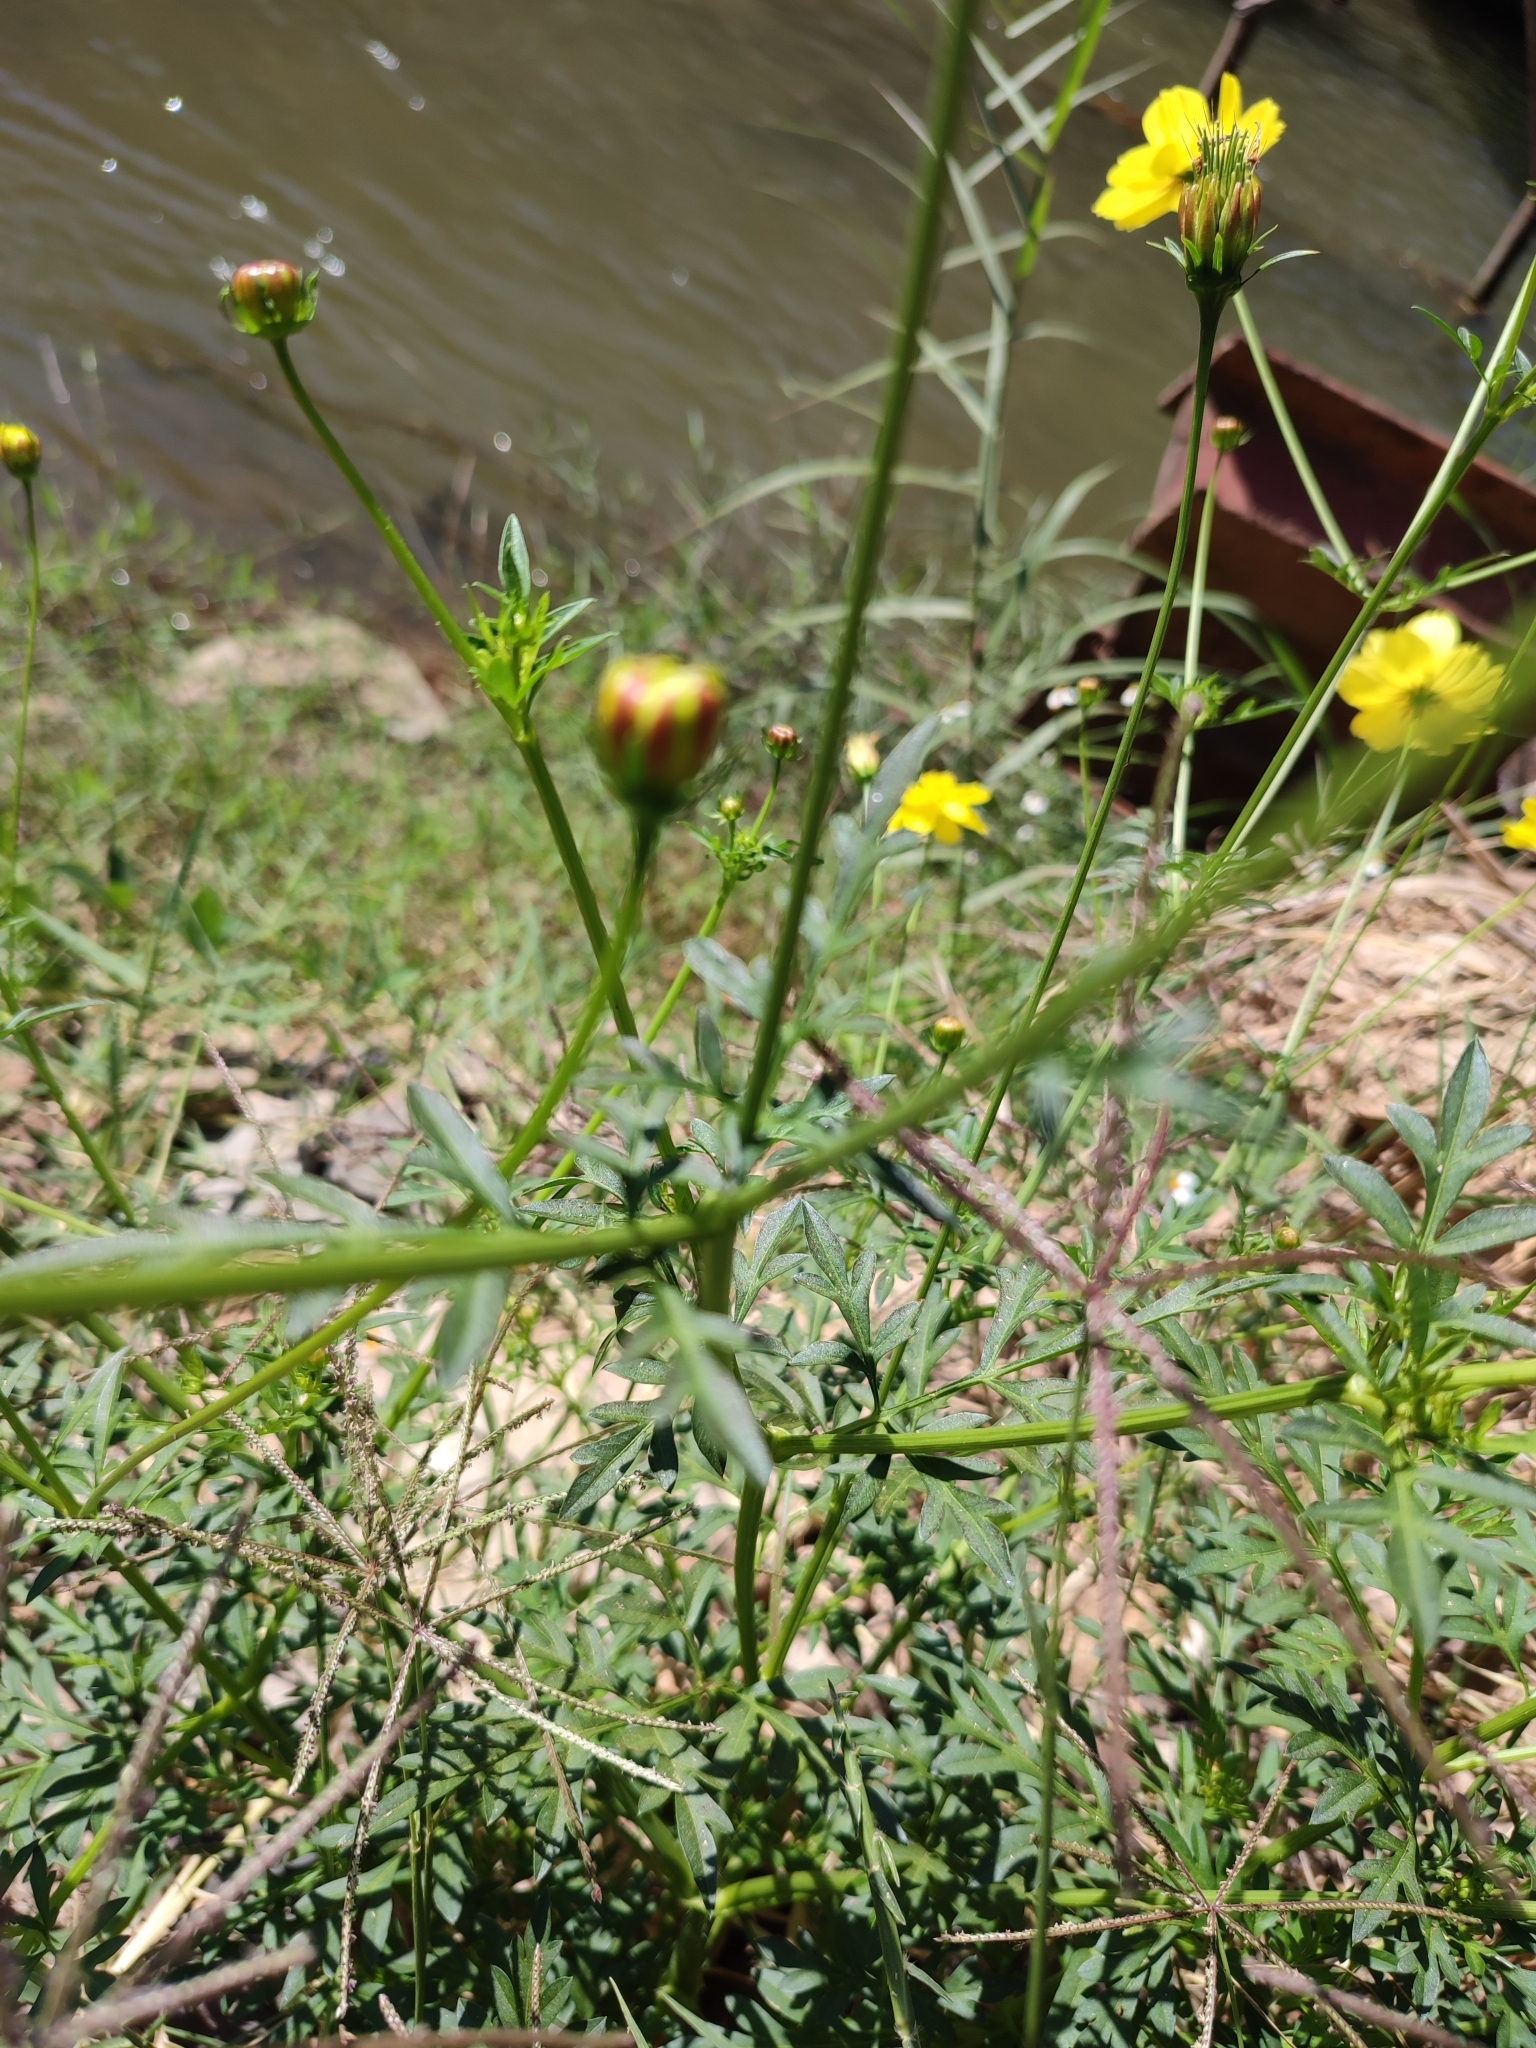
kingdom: Plantae
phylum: Tracheophyta
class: Magnoliopsida
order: Asterales
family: Asteraceae
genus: Cosmos
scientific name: Cosmos sulphureus
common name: Sulphur cosmos
